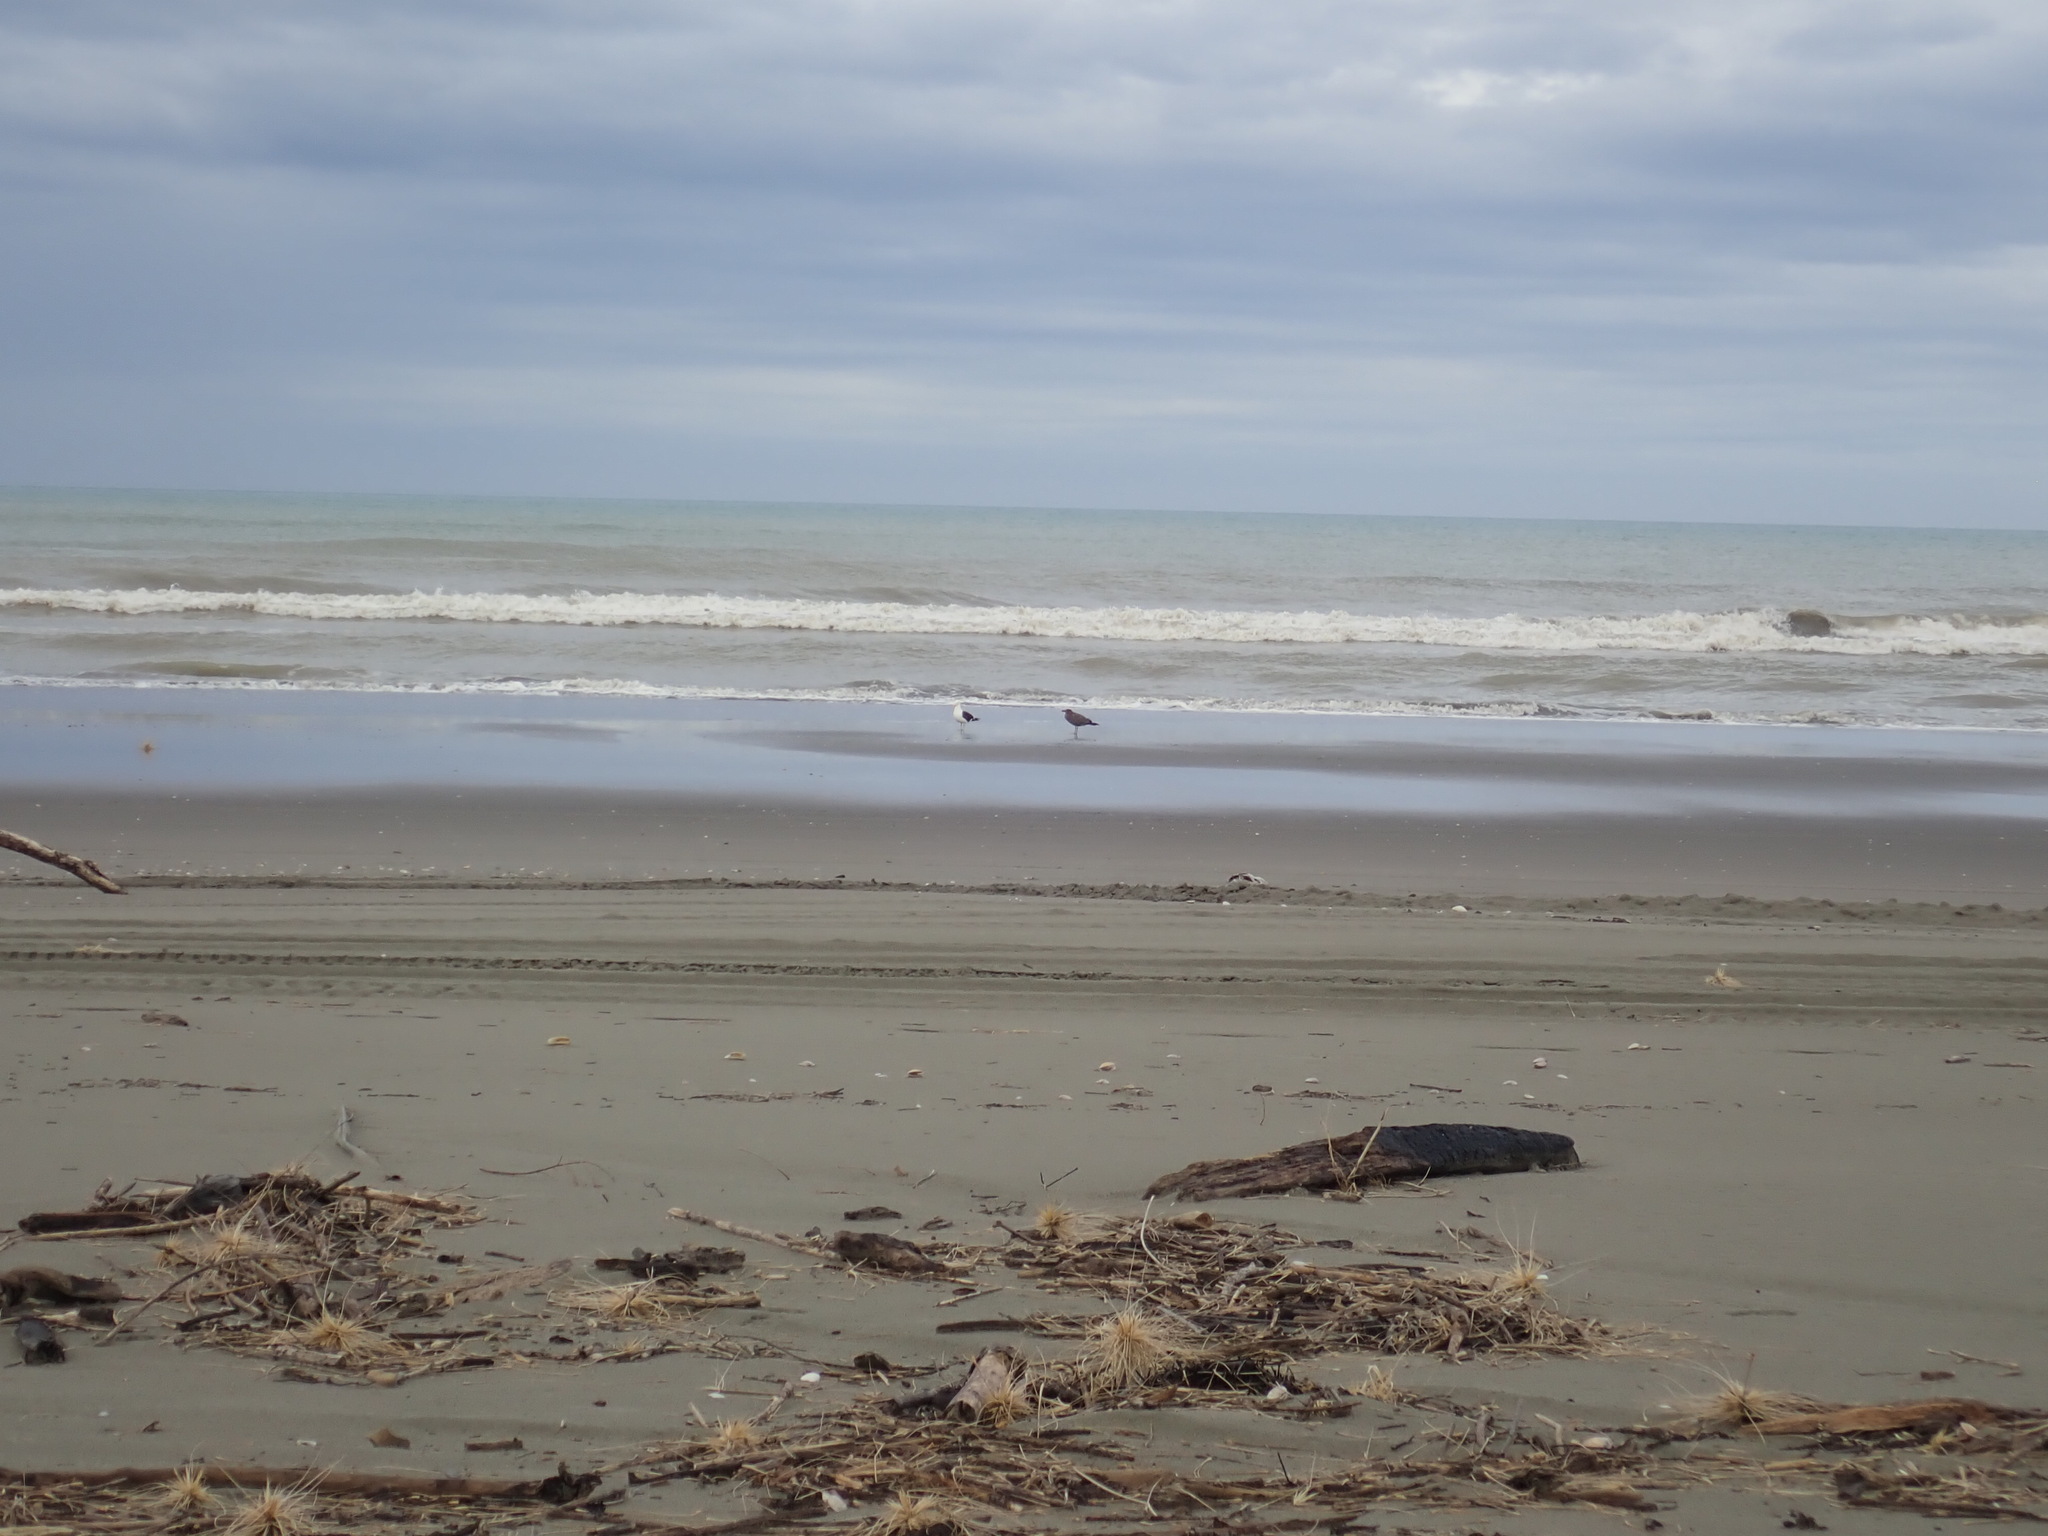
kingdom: Animalia
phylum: Chordata
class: Aves
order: Charadriiformes
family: Laridae
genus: Larus
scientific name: Larus dominicanus
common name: Kelp gull
